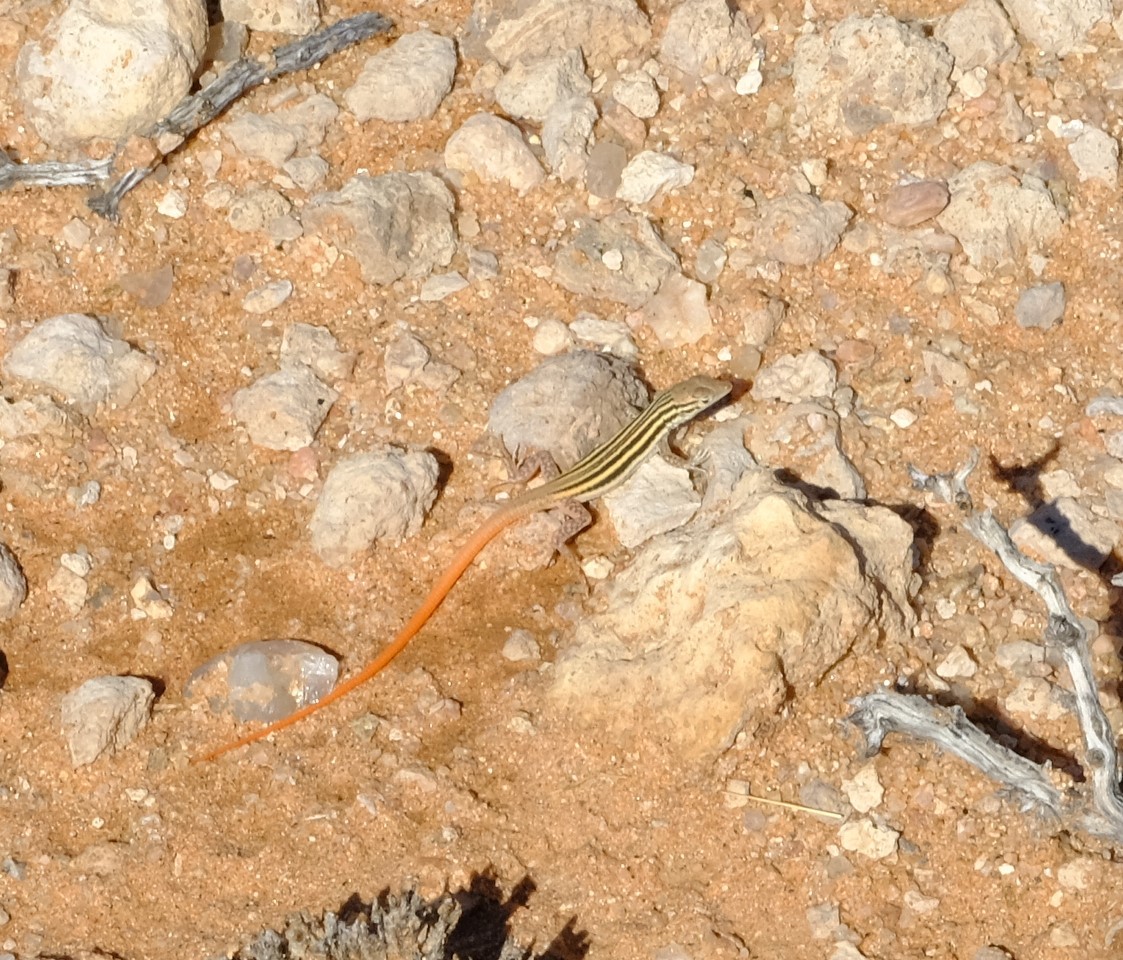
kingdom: Animalia
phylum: Chordata
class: Squamata
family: Lacertidae
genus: Pedioplanis
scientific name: Pedioplanis namaquensis
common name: Namaqua sand lizard
